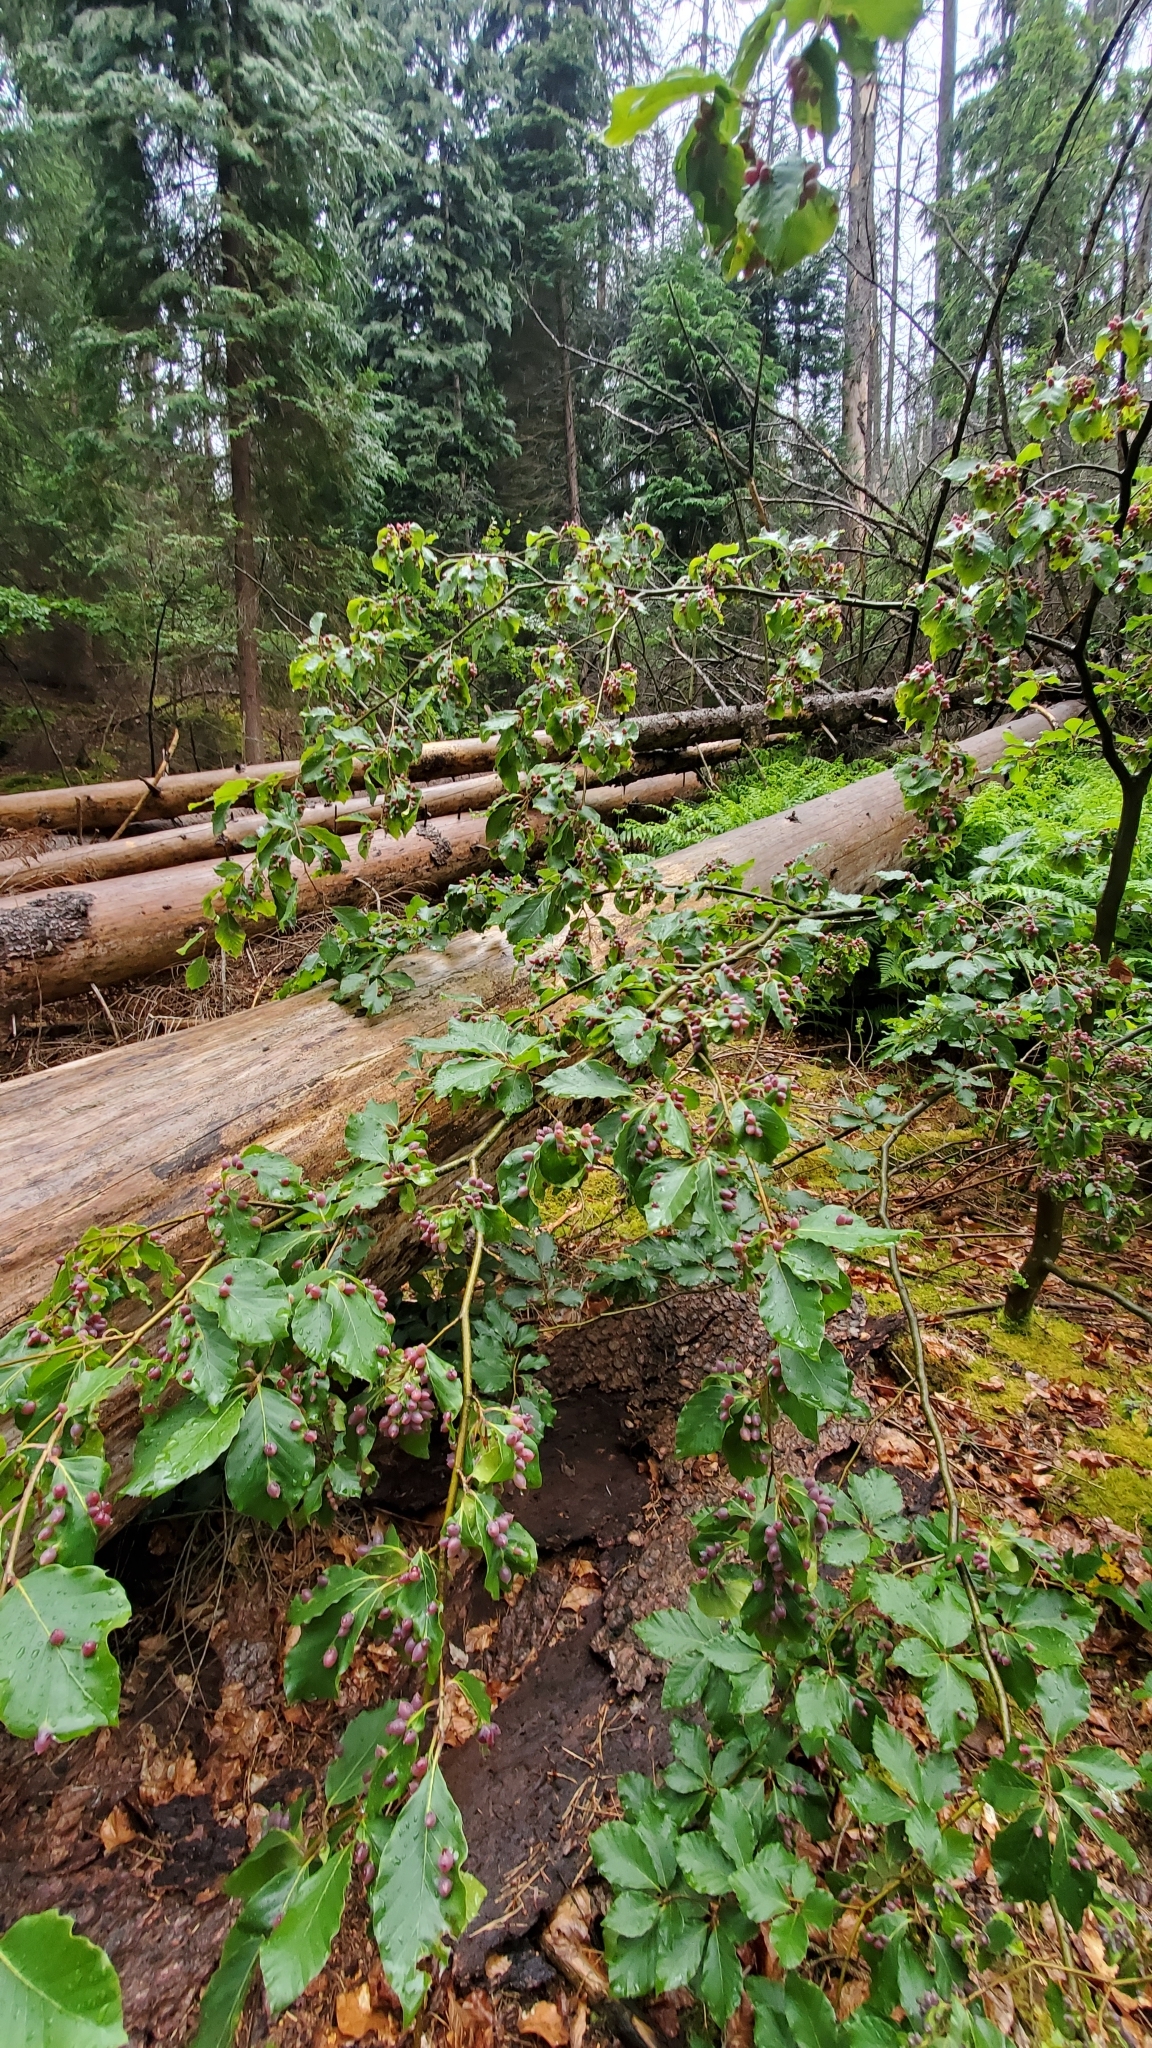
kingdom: Animalia
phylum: Arthropoda
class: Insecta
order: Diptera
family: Cecidomyiidae
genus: Mikiola
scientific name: Mikiola fagi
